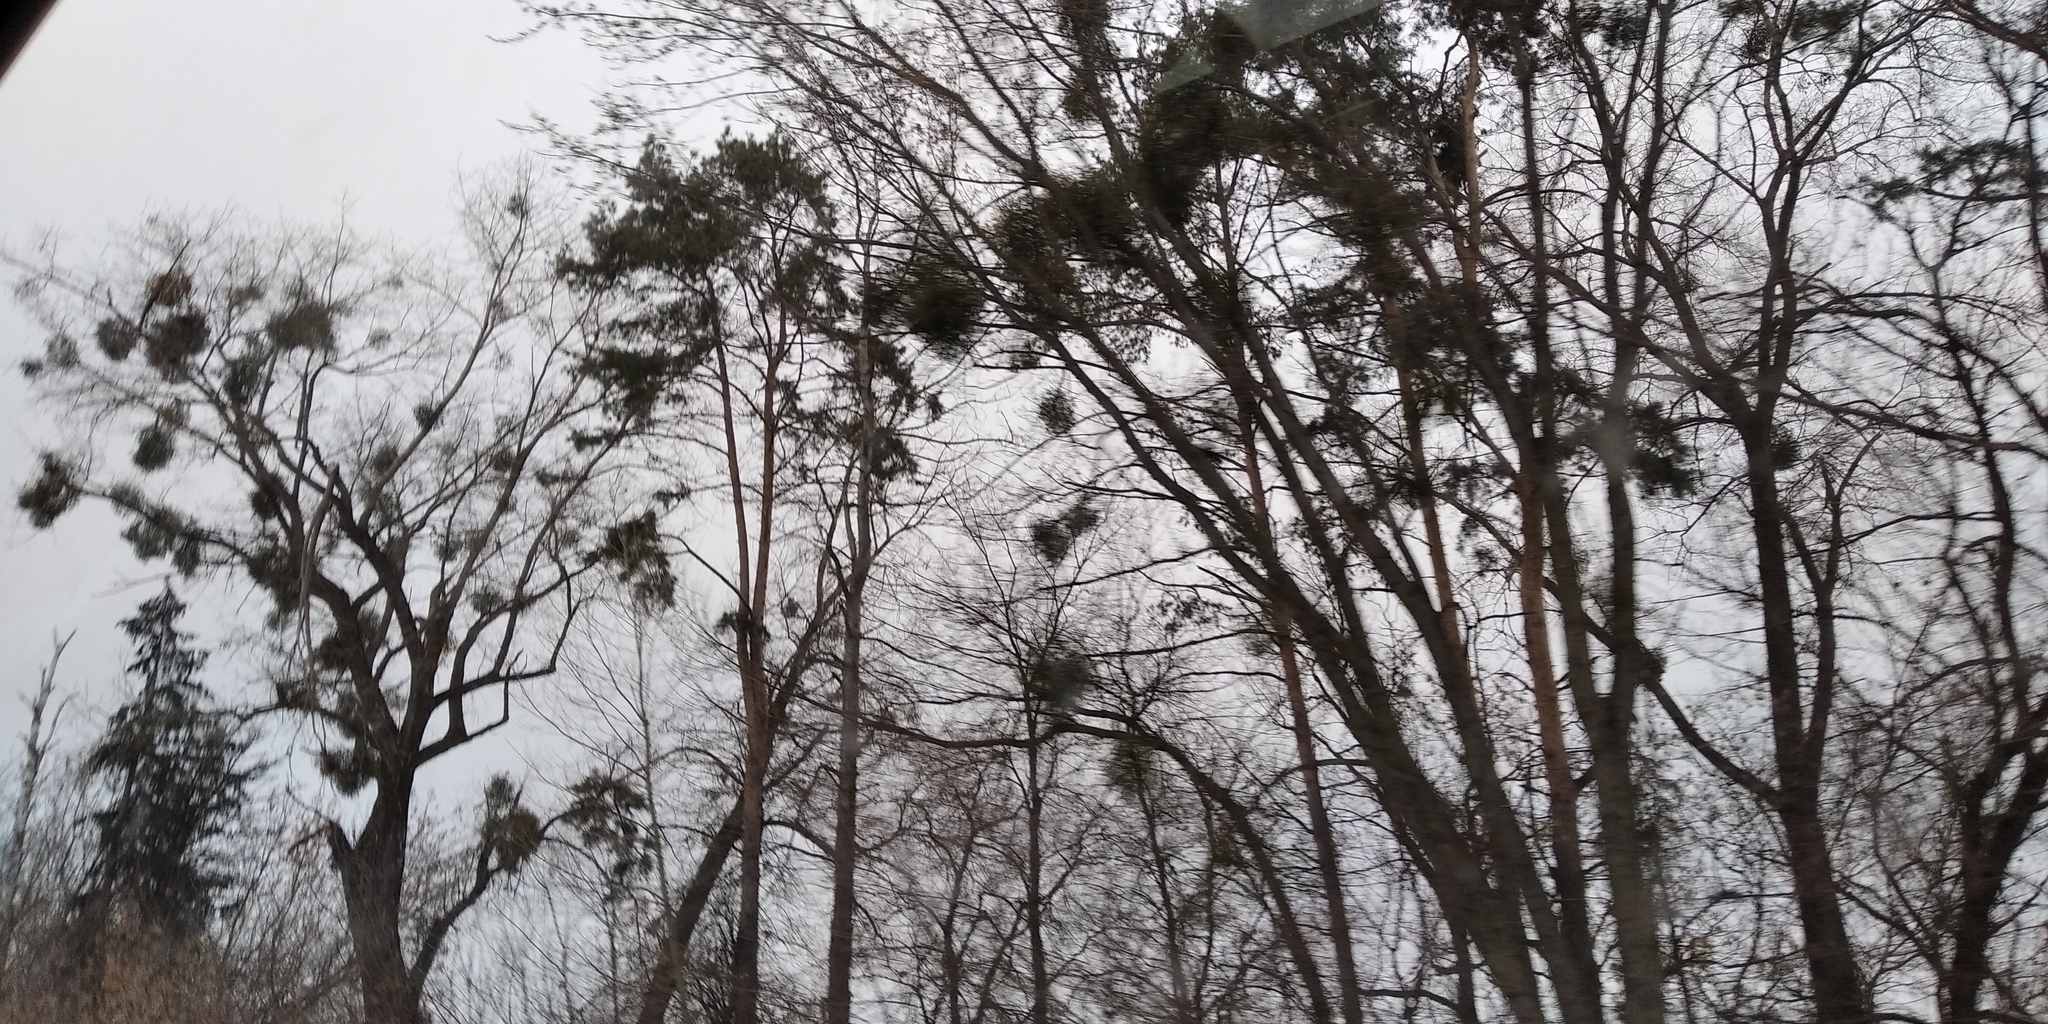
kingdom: Plantae
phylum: Tracheophyta
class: Magnoliopsida
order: Santalales
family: Viscaceae
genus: Viscum
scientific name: Viscum album
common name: Mistletoe
